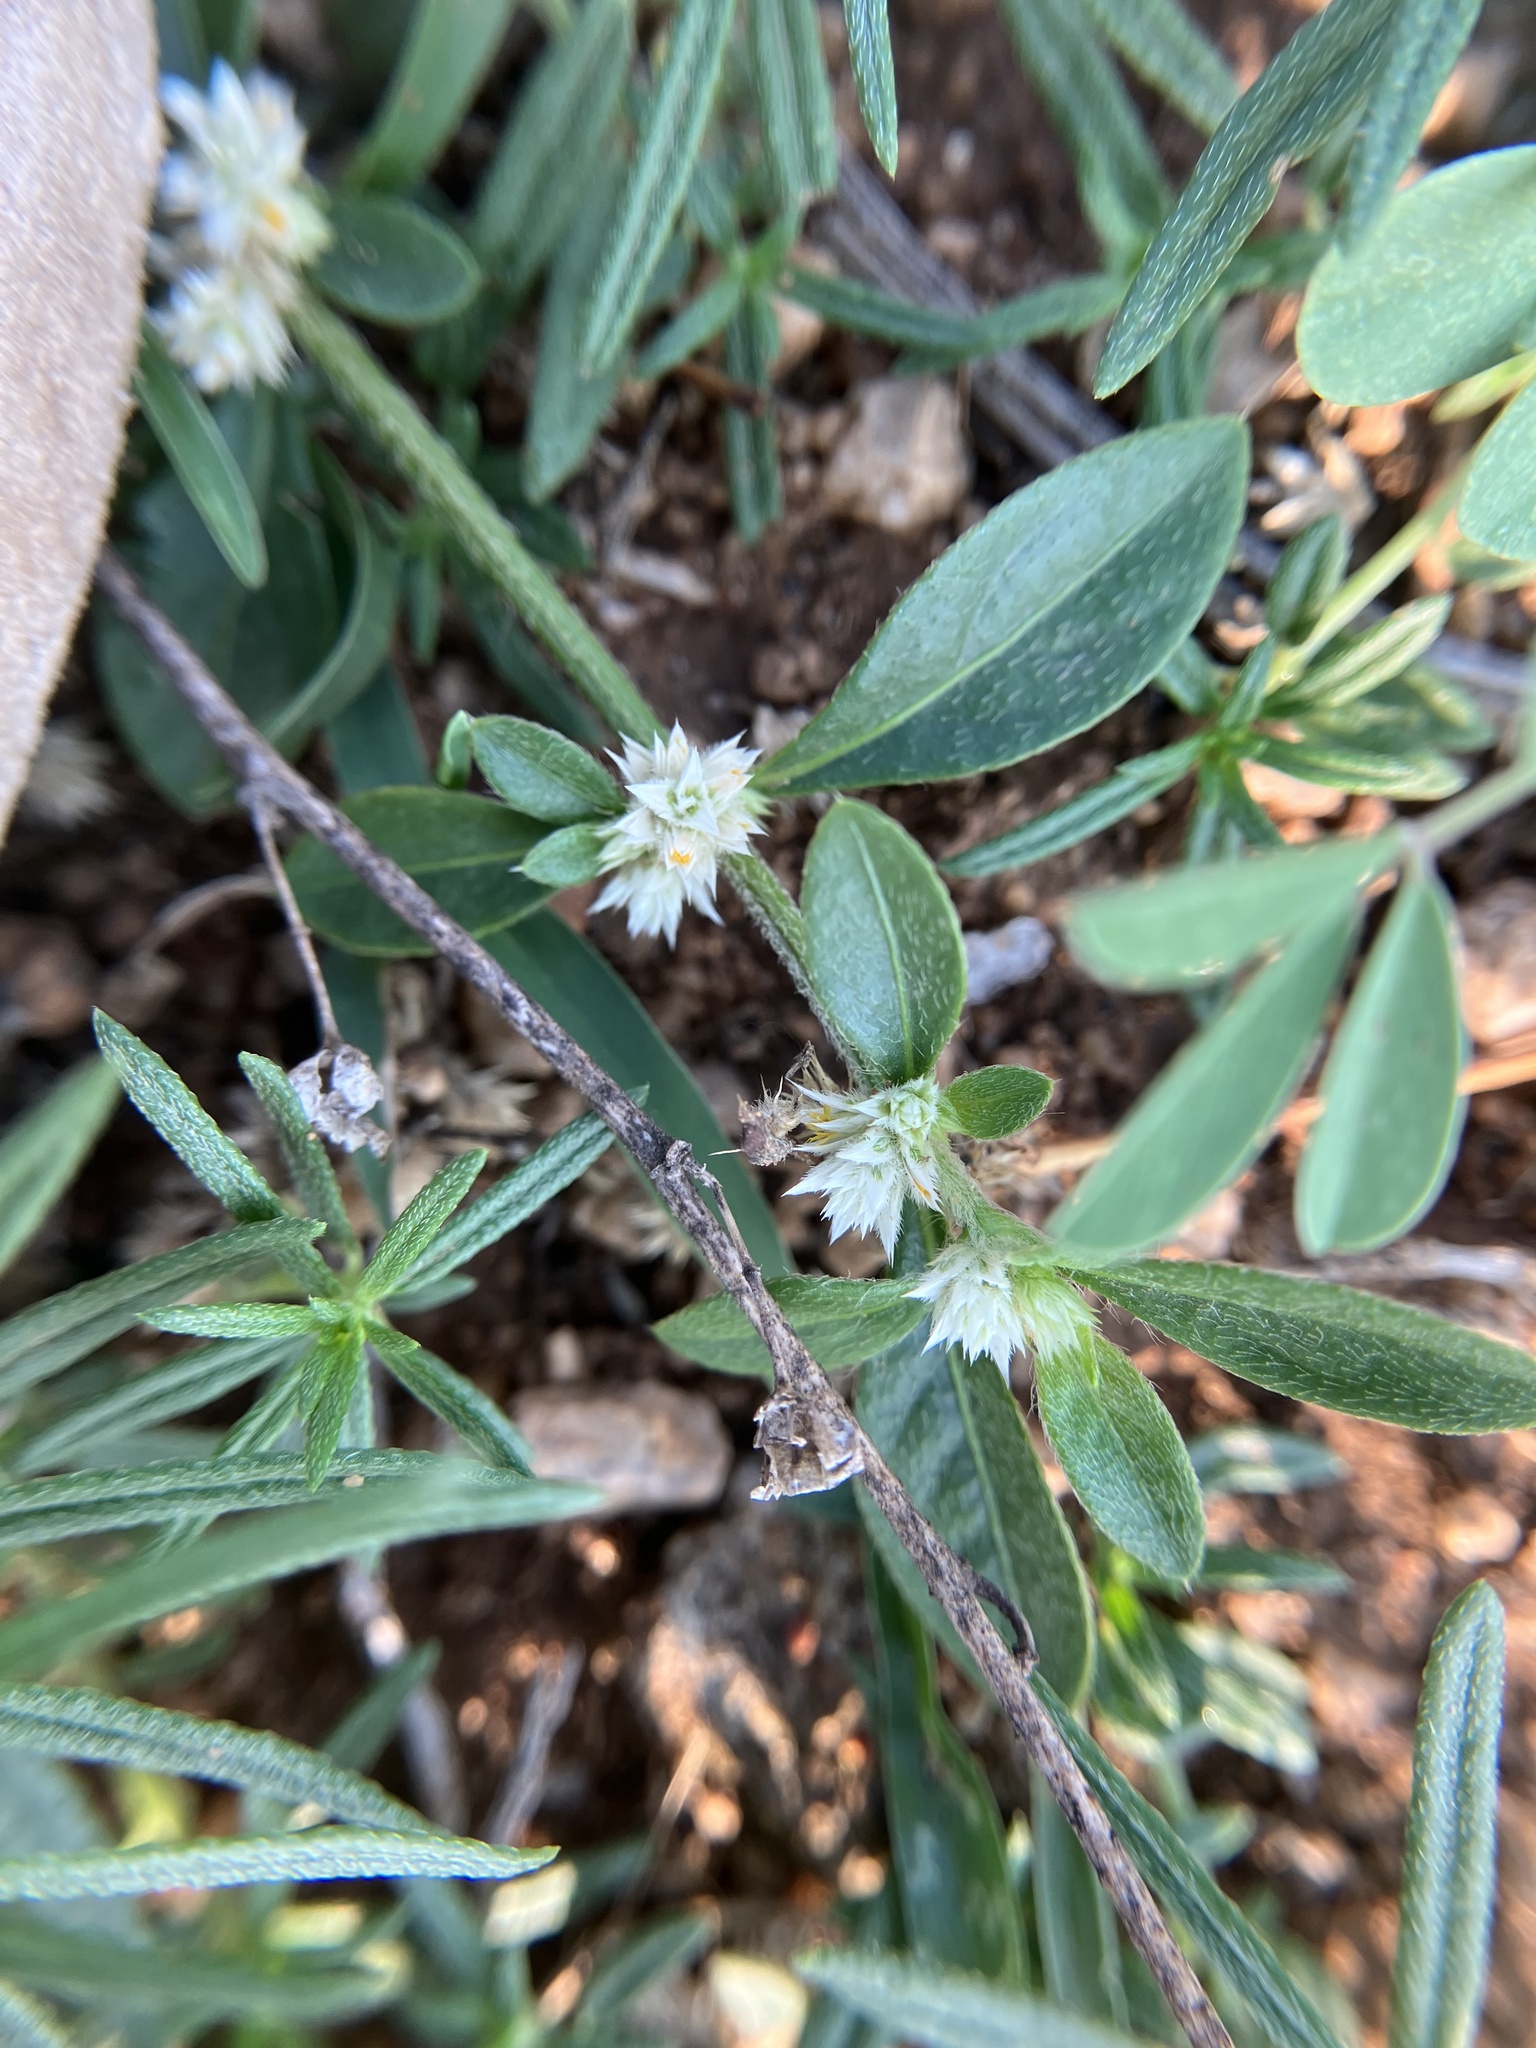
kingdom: Plantae
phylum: Tracheophyta
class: Magnoliopsida
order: Caryophyllales
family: Amaranthaceae
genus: Alternanthera
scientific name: Alternanthera ficoidea
